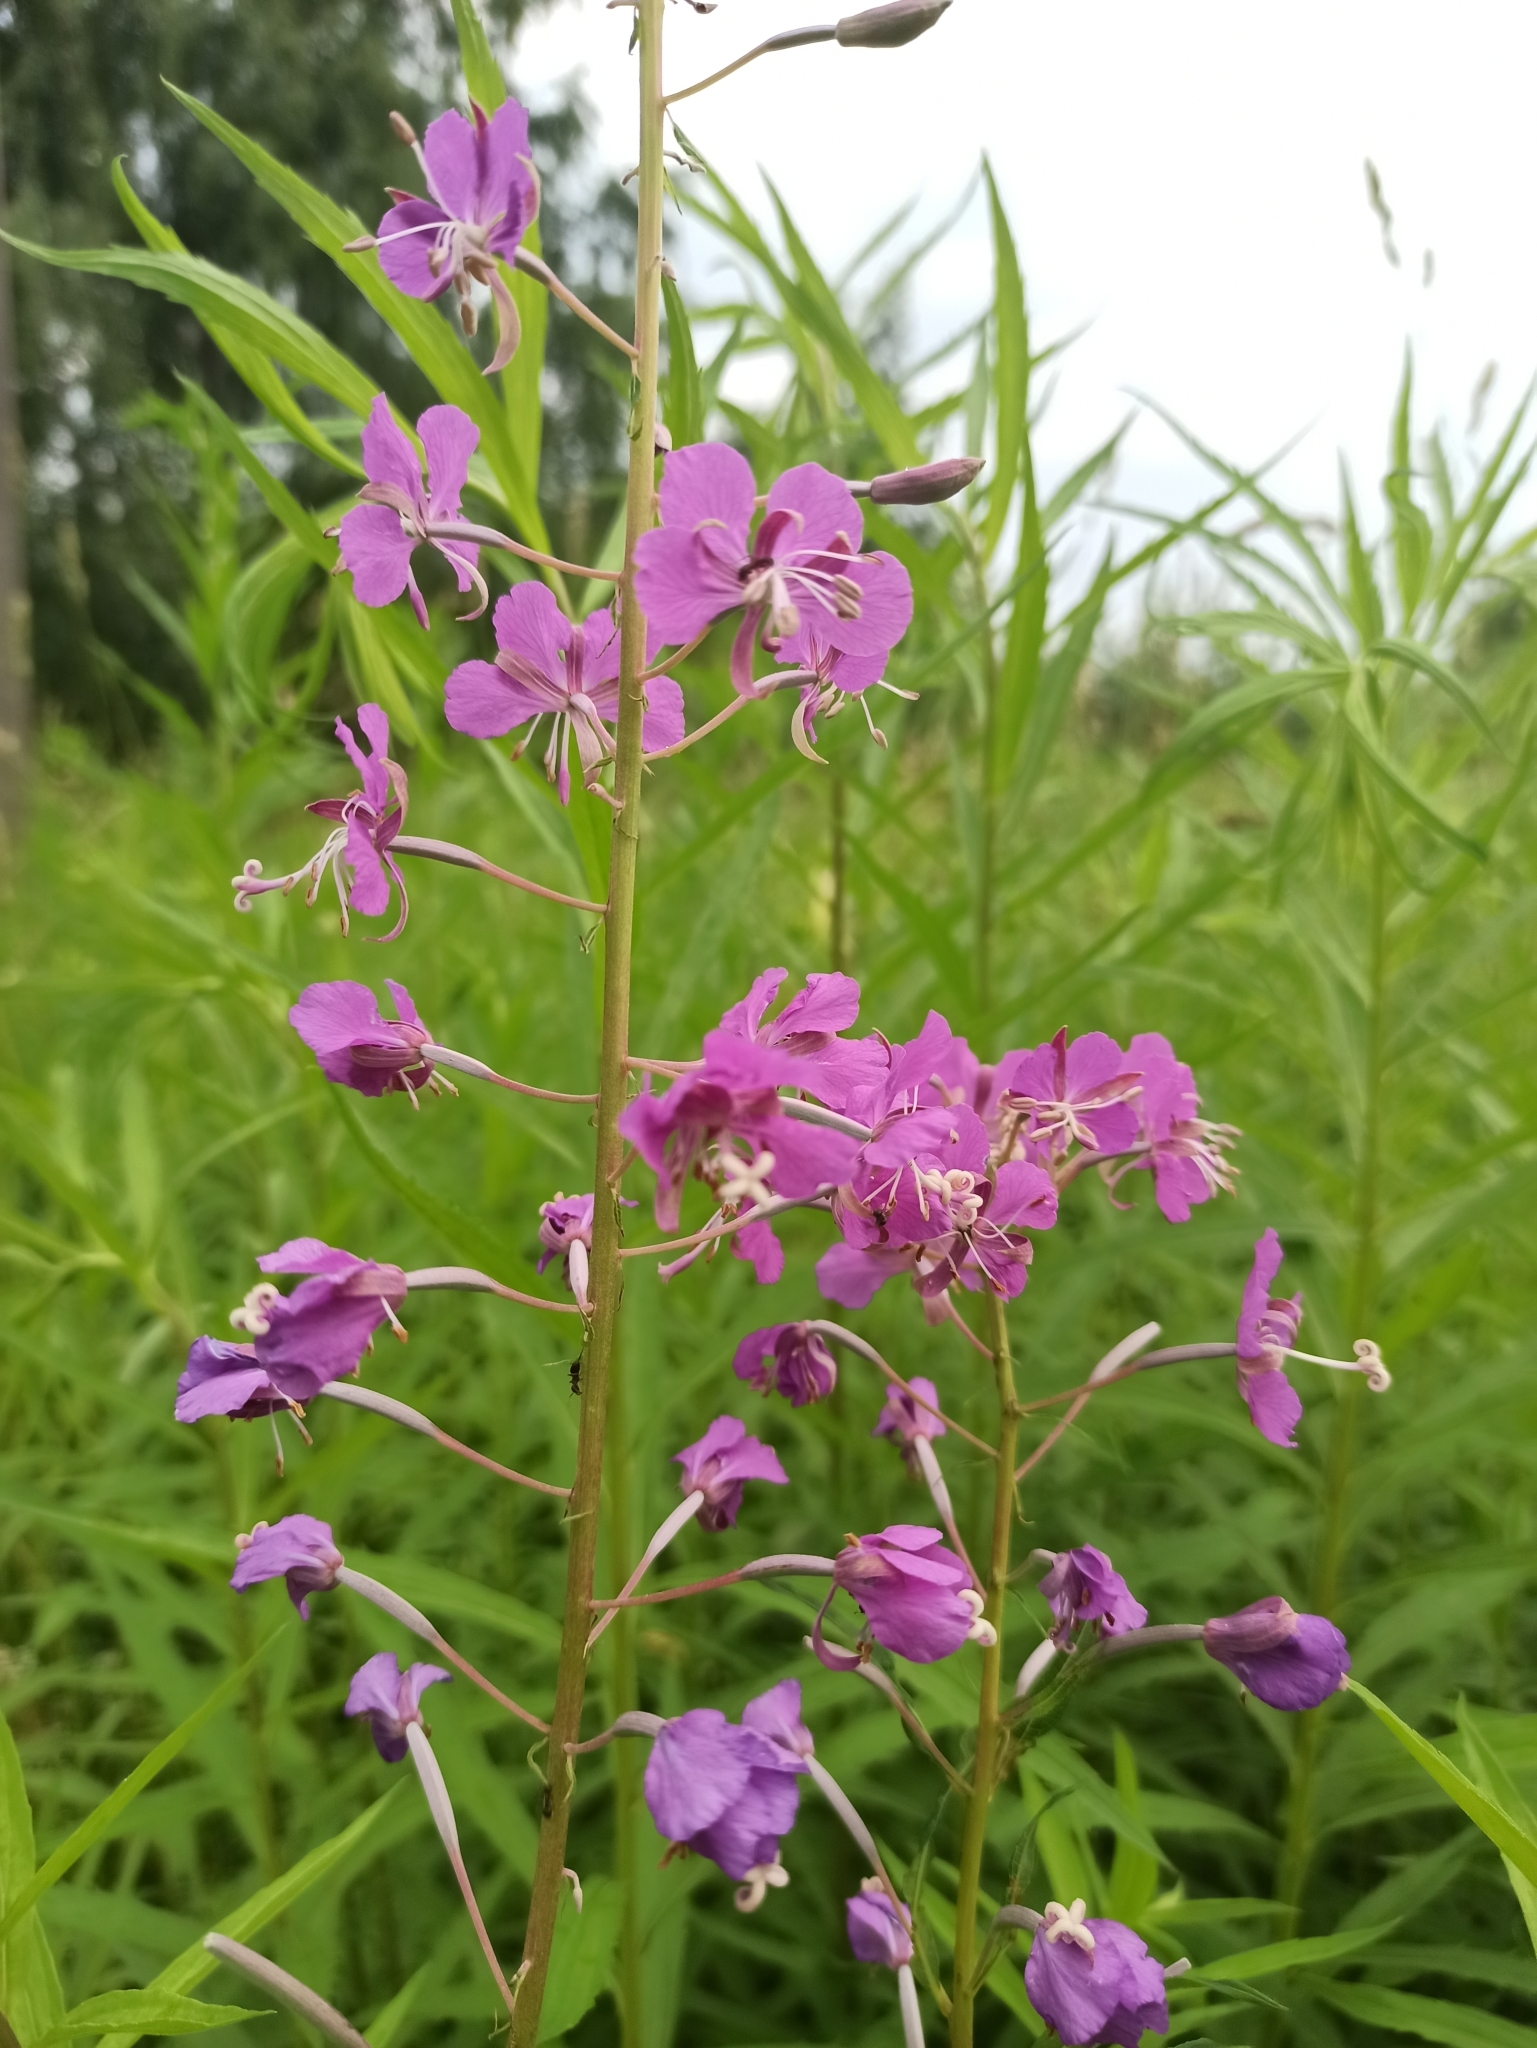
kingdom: Plantae
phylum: Tracheophyta
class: Magnoliopsida
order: Myrtales
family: Onagraceae
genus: Chamaenerion
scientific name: Chamaenerion angustifolium
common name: Fireweed
